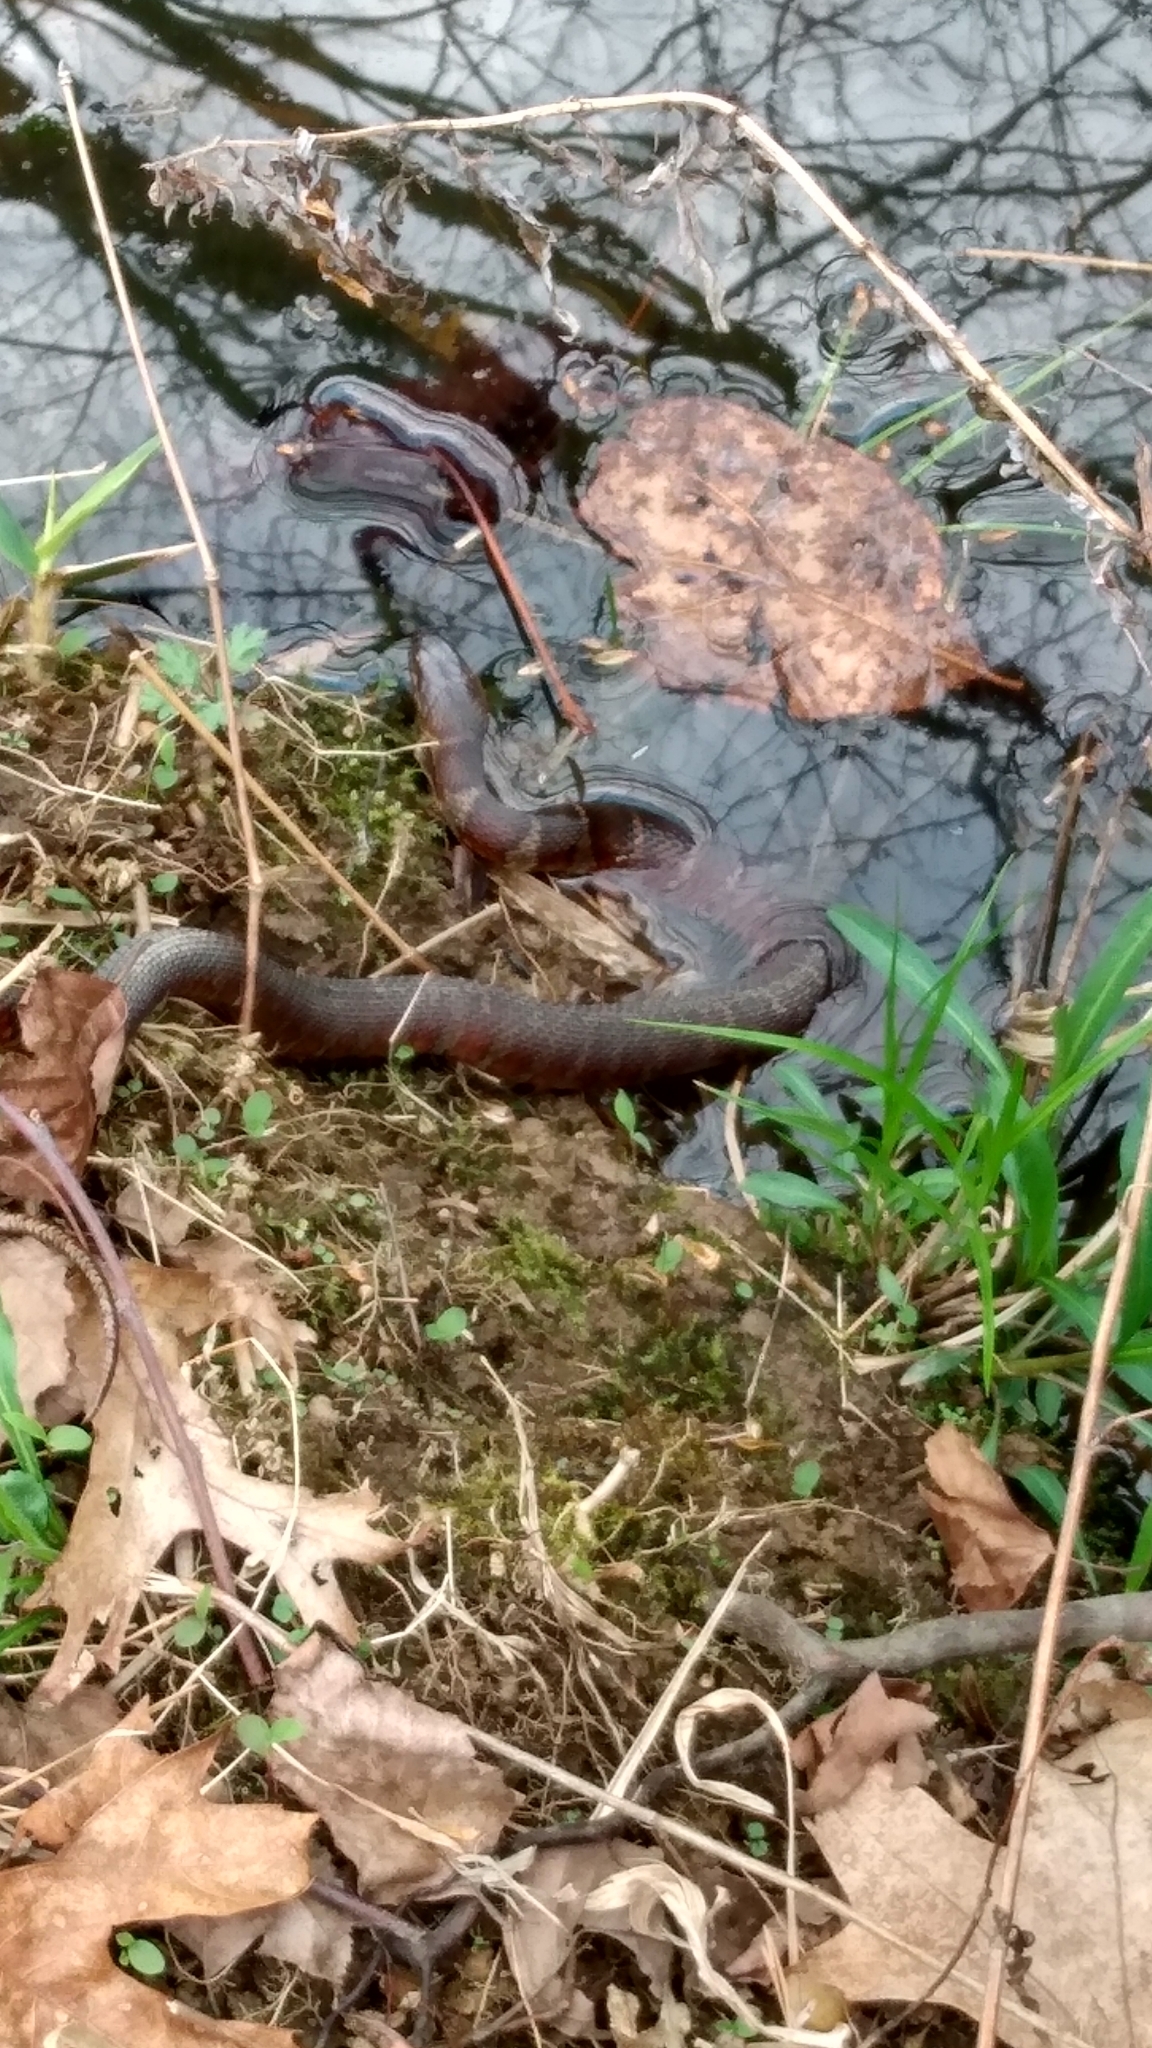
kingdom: Animalia
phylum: Chordata
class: Squamata
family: Colubridae
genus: Nerodia
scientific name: Nerodia sipedon
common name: Northern water snake
